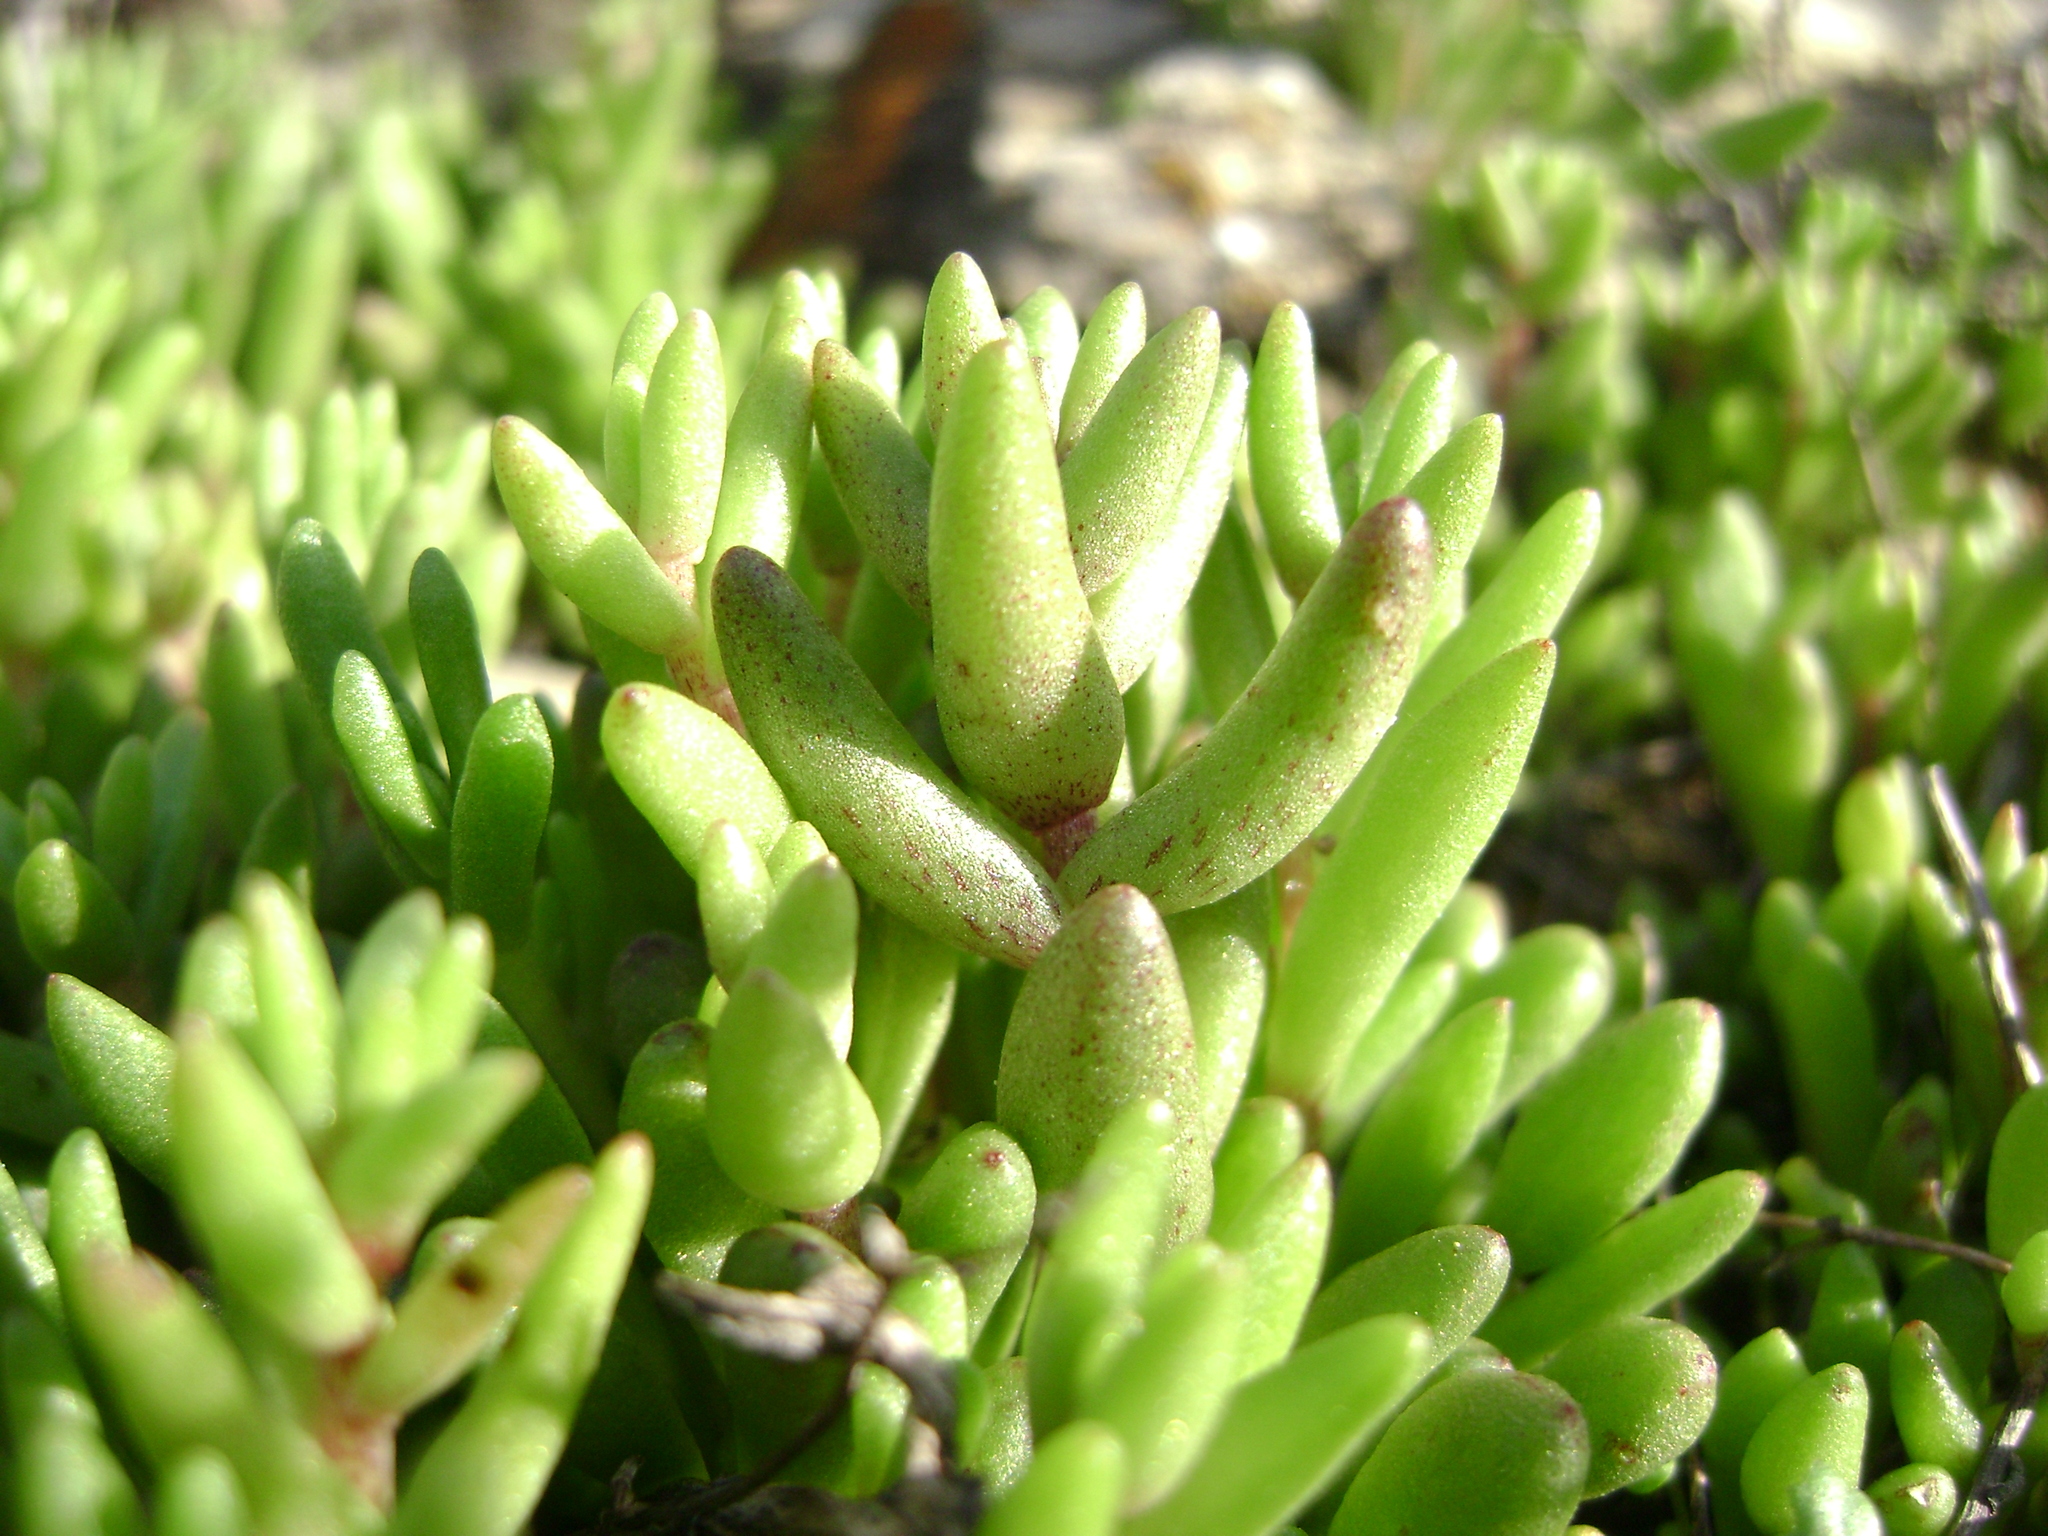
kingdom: Plantae
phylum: Tracheophyta
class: Magnoliopsida
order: Saxifragales
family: Crassulaceae
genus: Dudleya
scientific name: Dudleya blochmaniae
